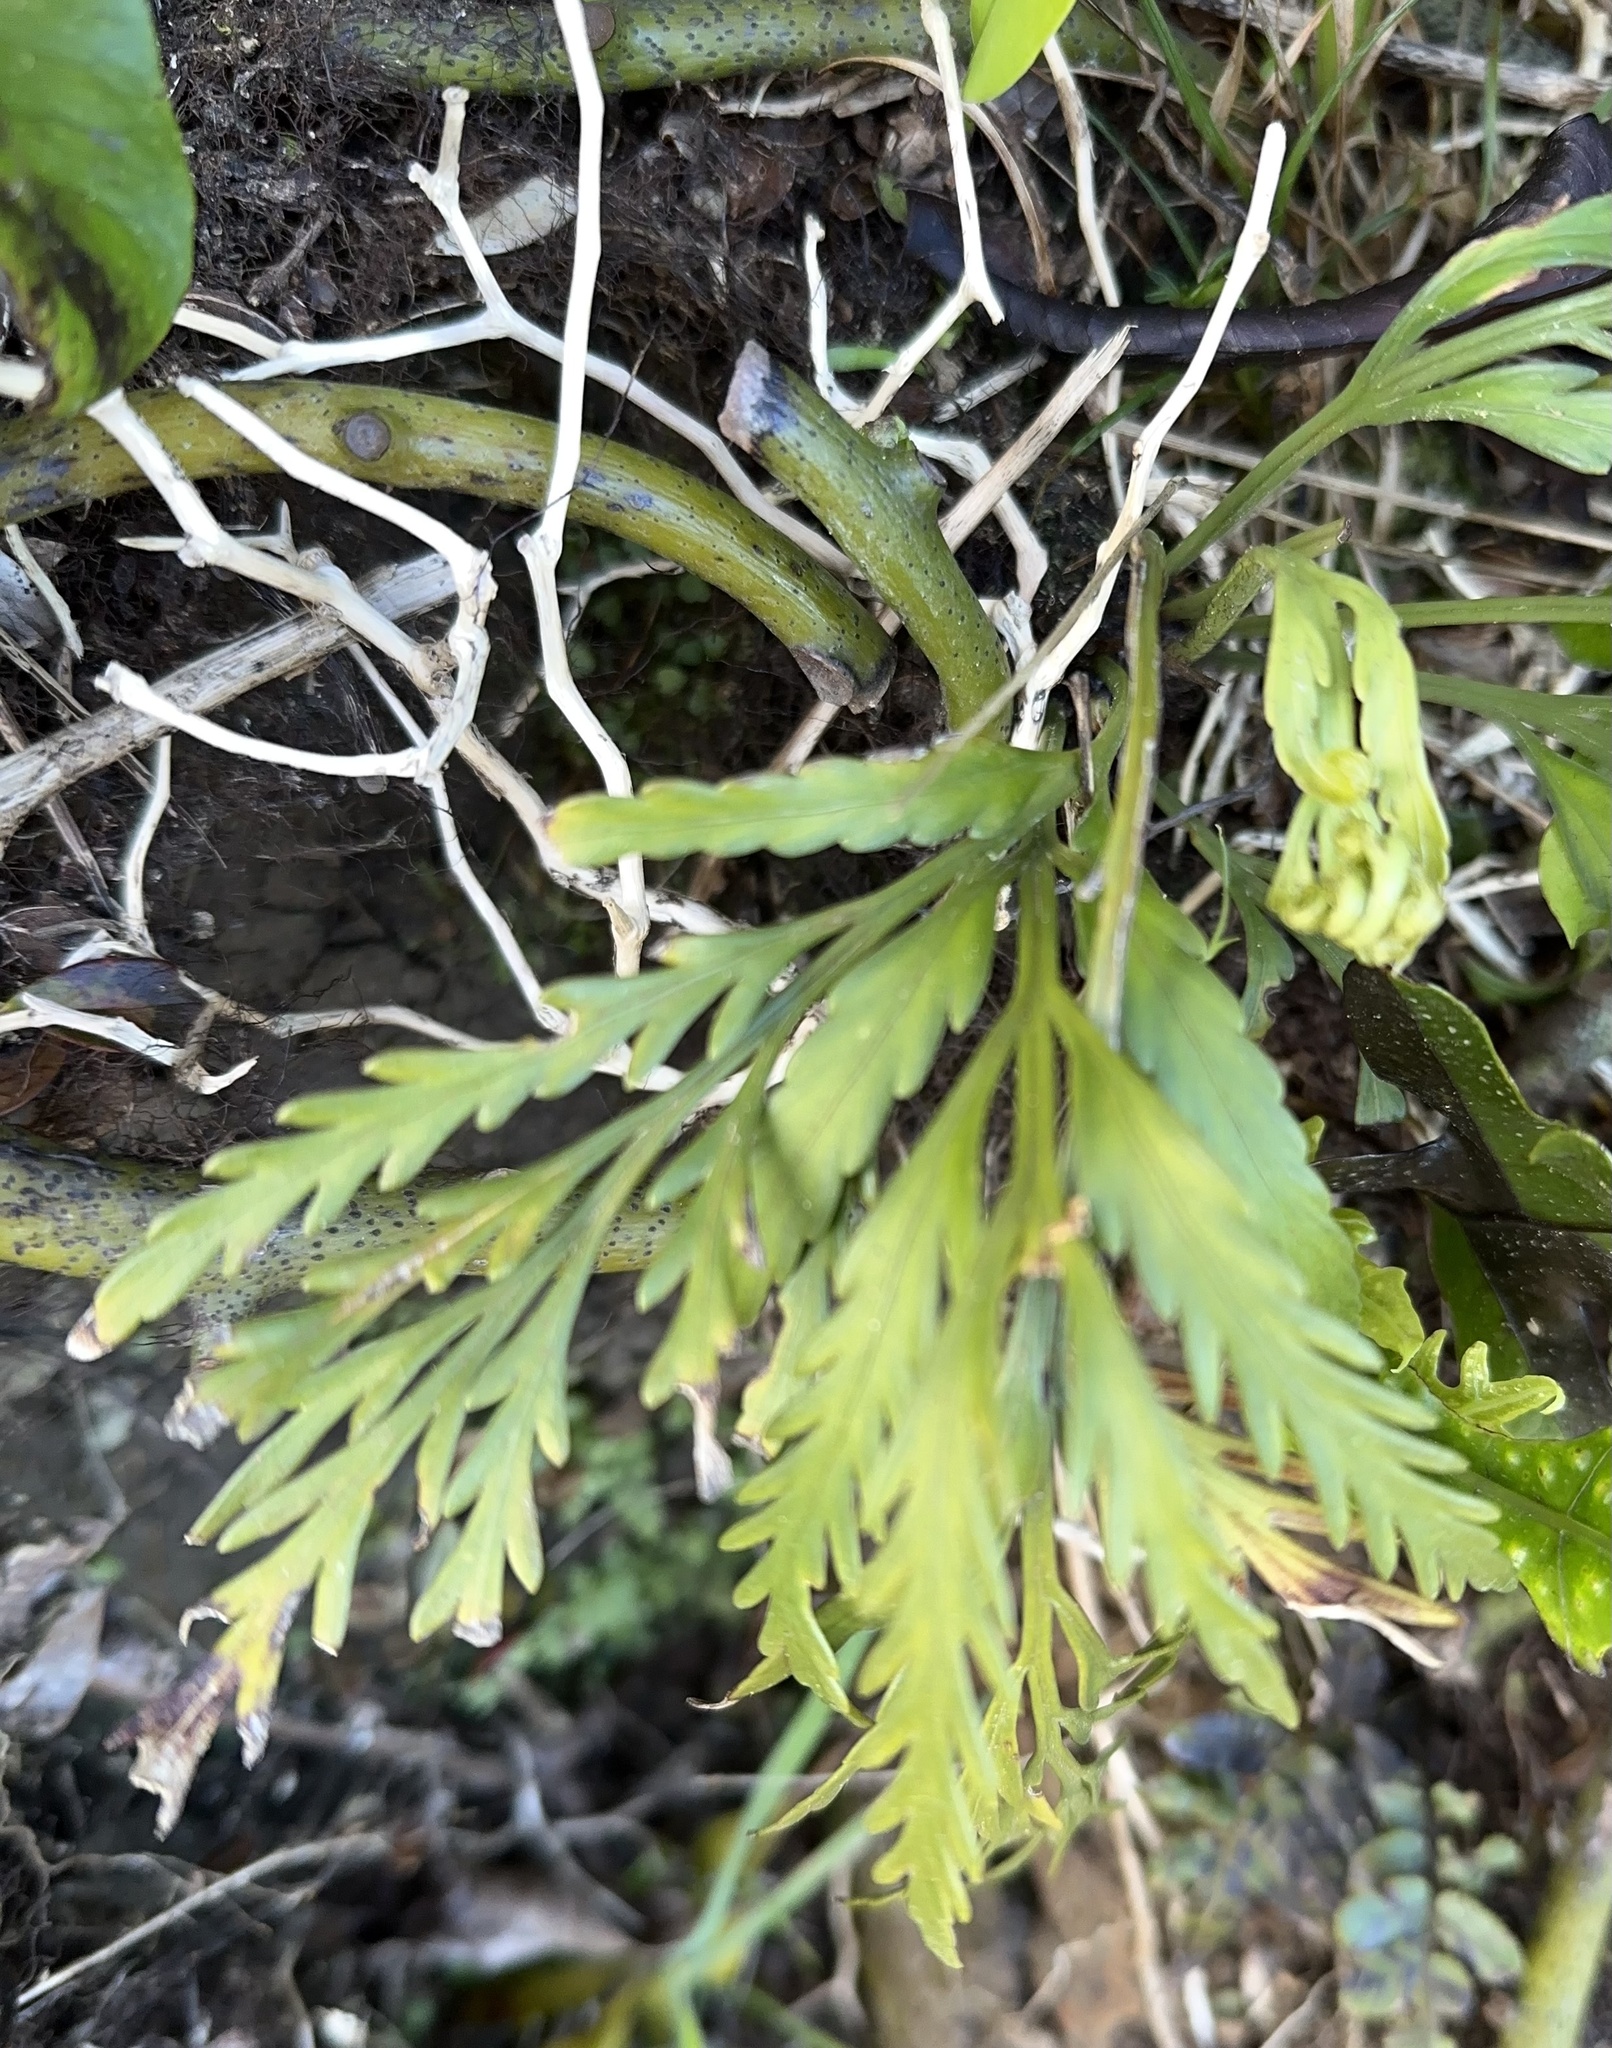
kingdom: Plantae
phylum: Tracheophyta
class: Polypodiopsida
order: Polypodiales
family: Aspleniaceae
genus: Asplenium
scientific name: Asplenium appendiculatum
